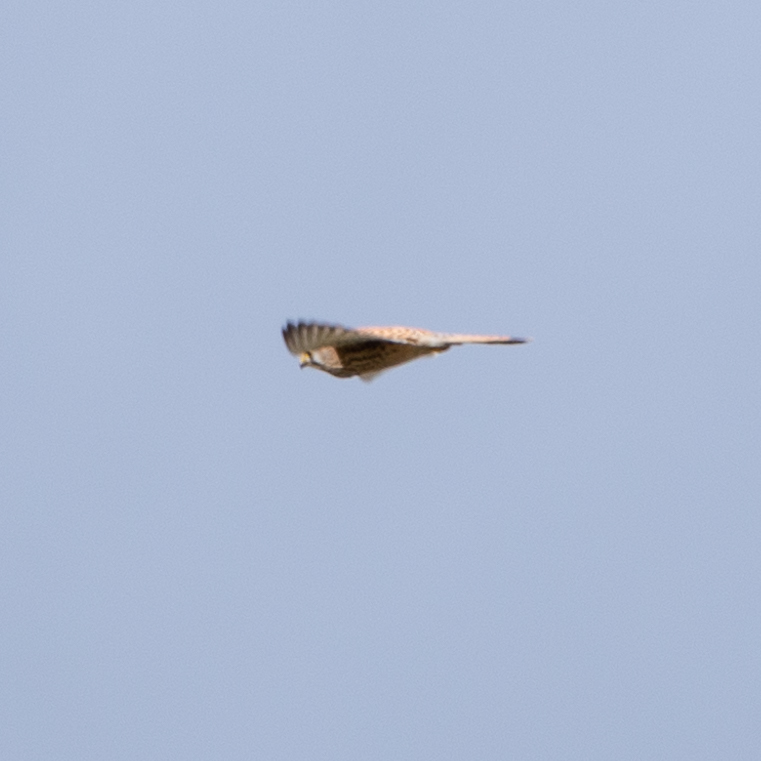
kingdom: Animalia
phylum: Chordata
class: Aves
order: Falconiformes
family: Falconidae
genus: Falco
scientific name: Falco tinnunculus
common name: Common kestrel
